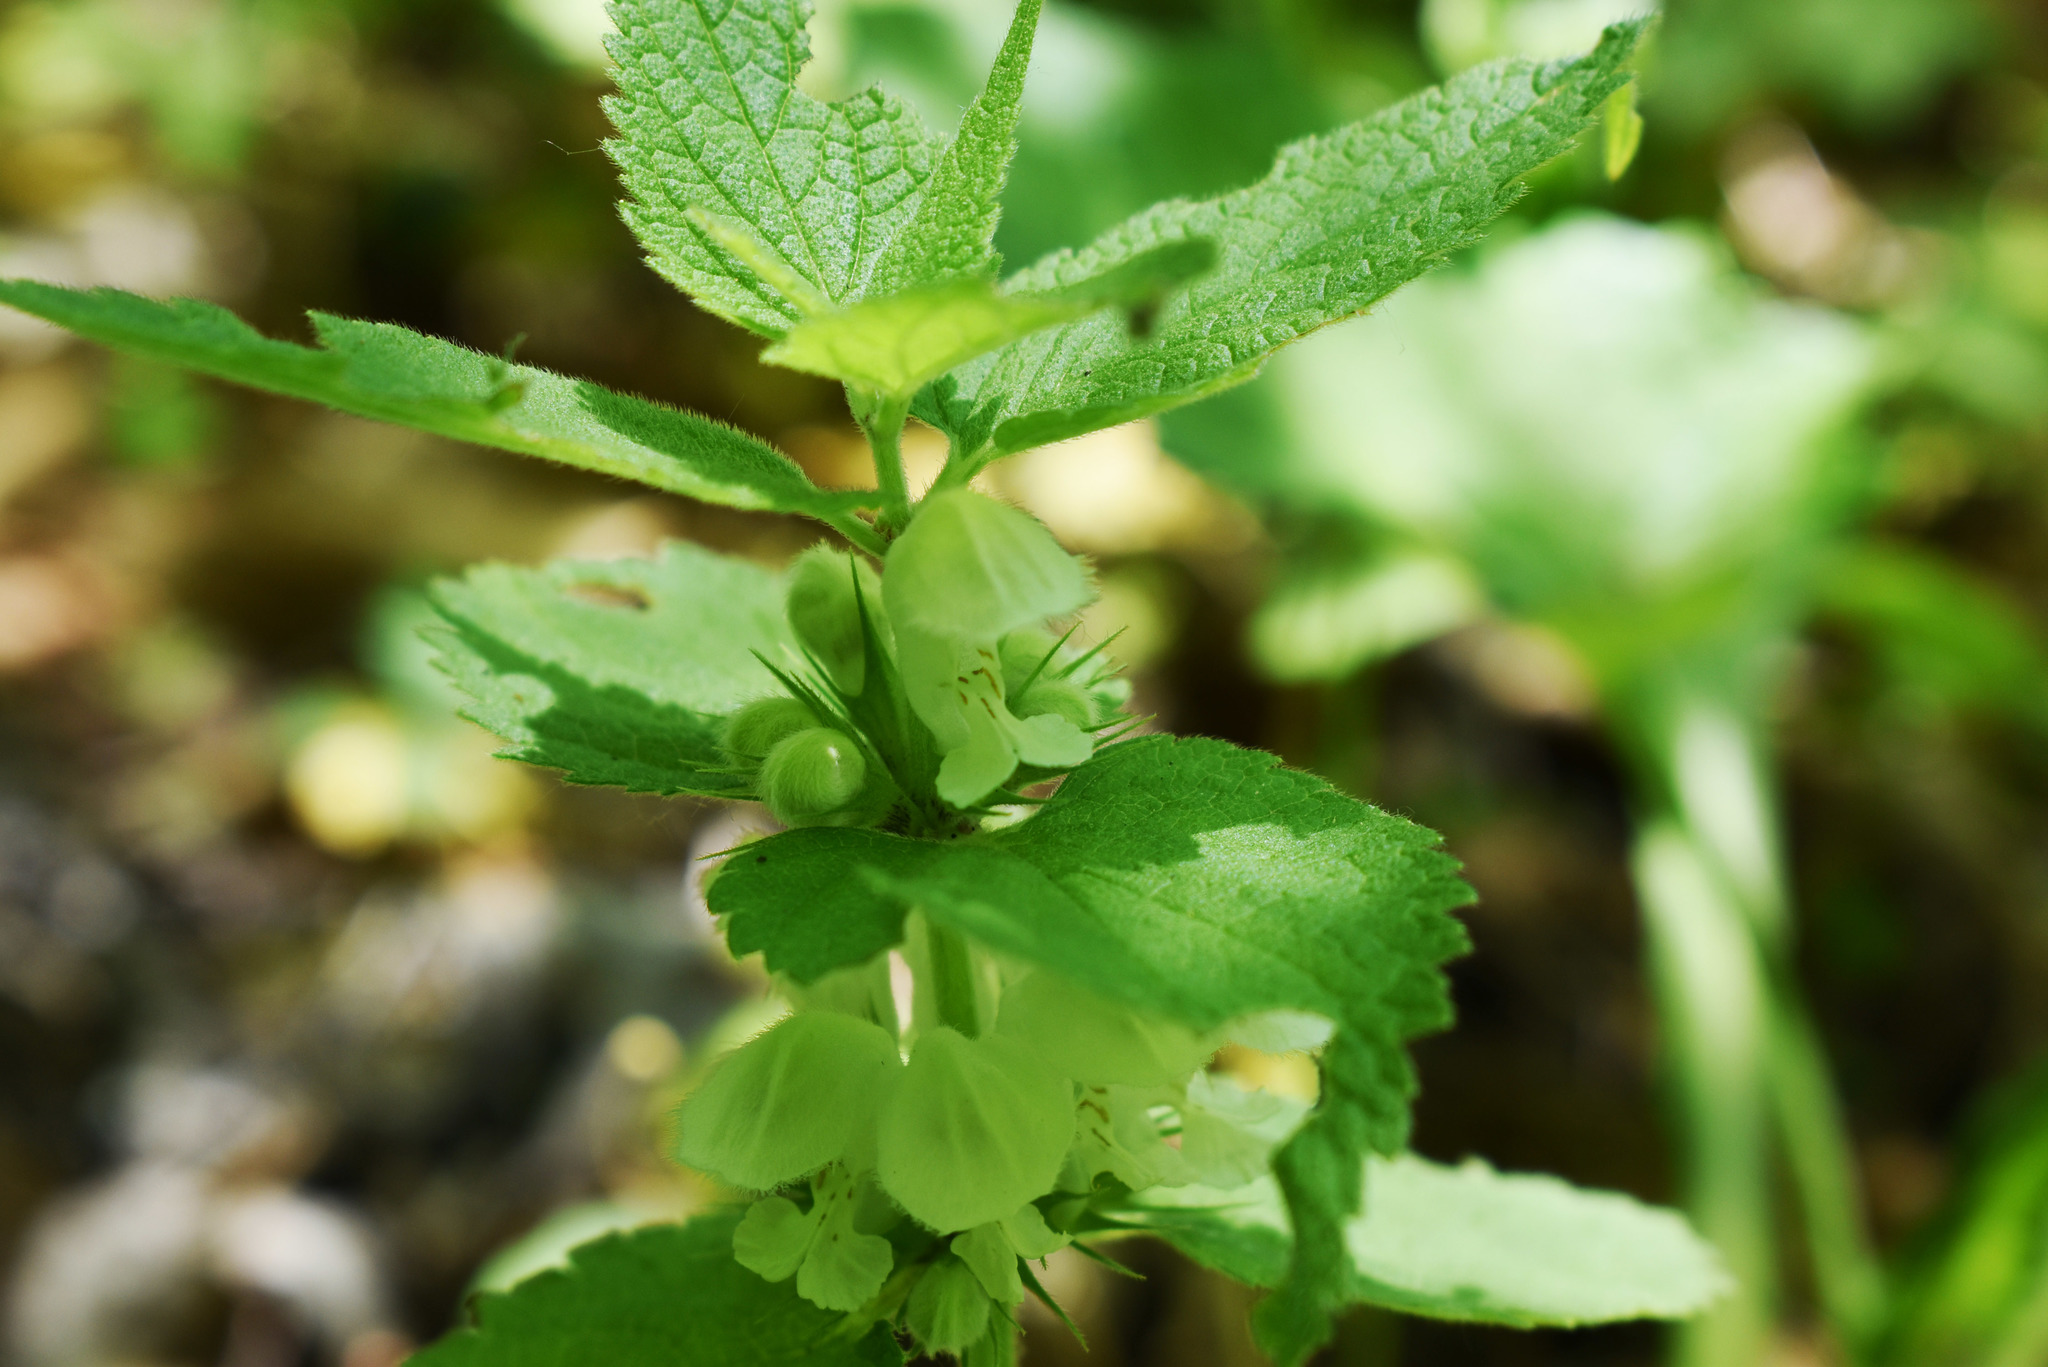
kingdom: Plantae
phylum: Tracheophyta
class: Magnoliopsida
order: Lamiales
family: Lamiaceae
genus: Lamium
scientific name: Lamium album
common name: White dead-nettle
